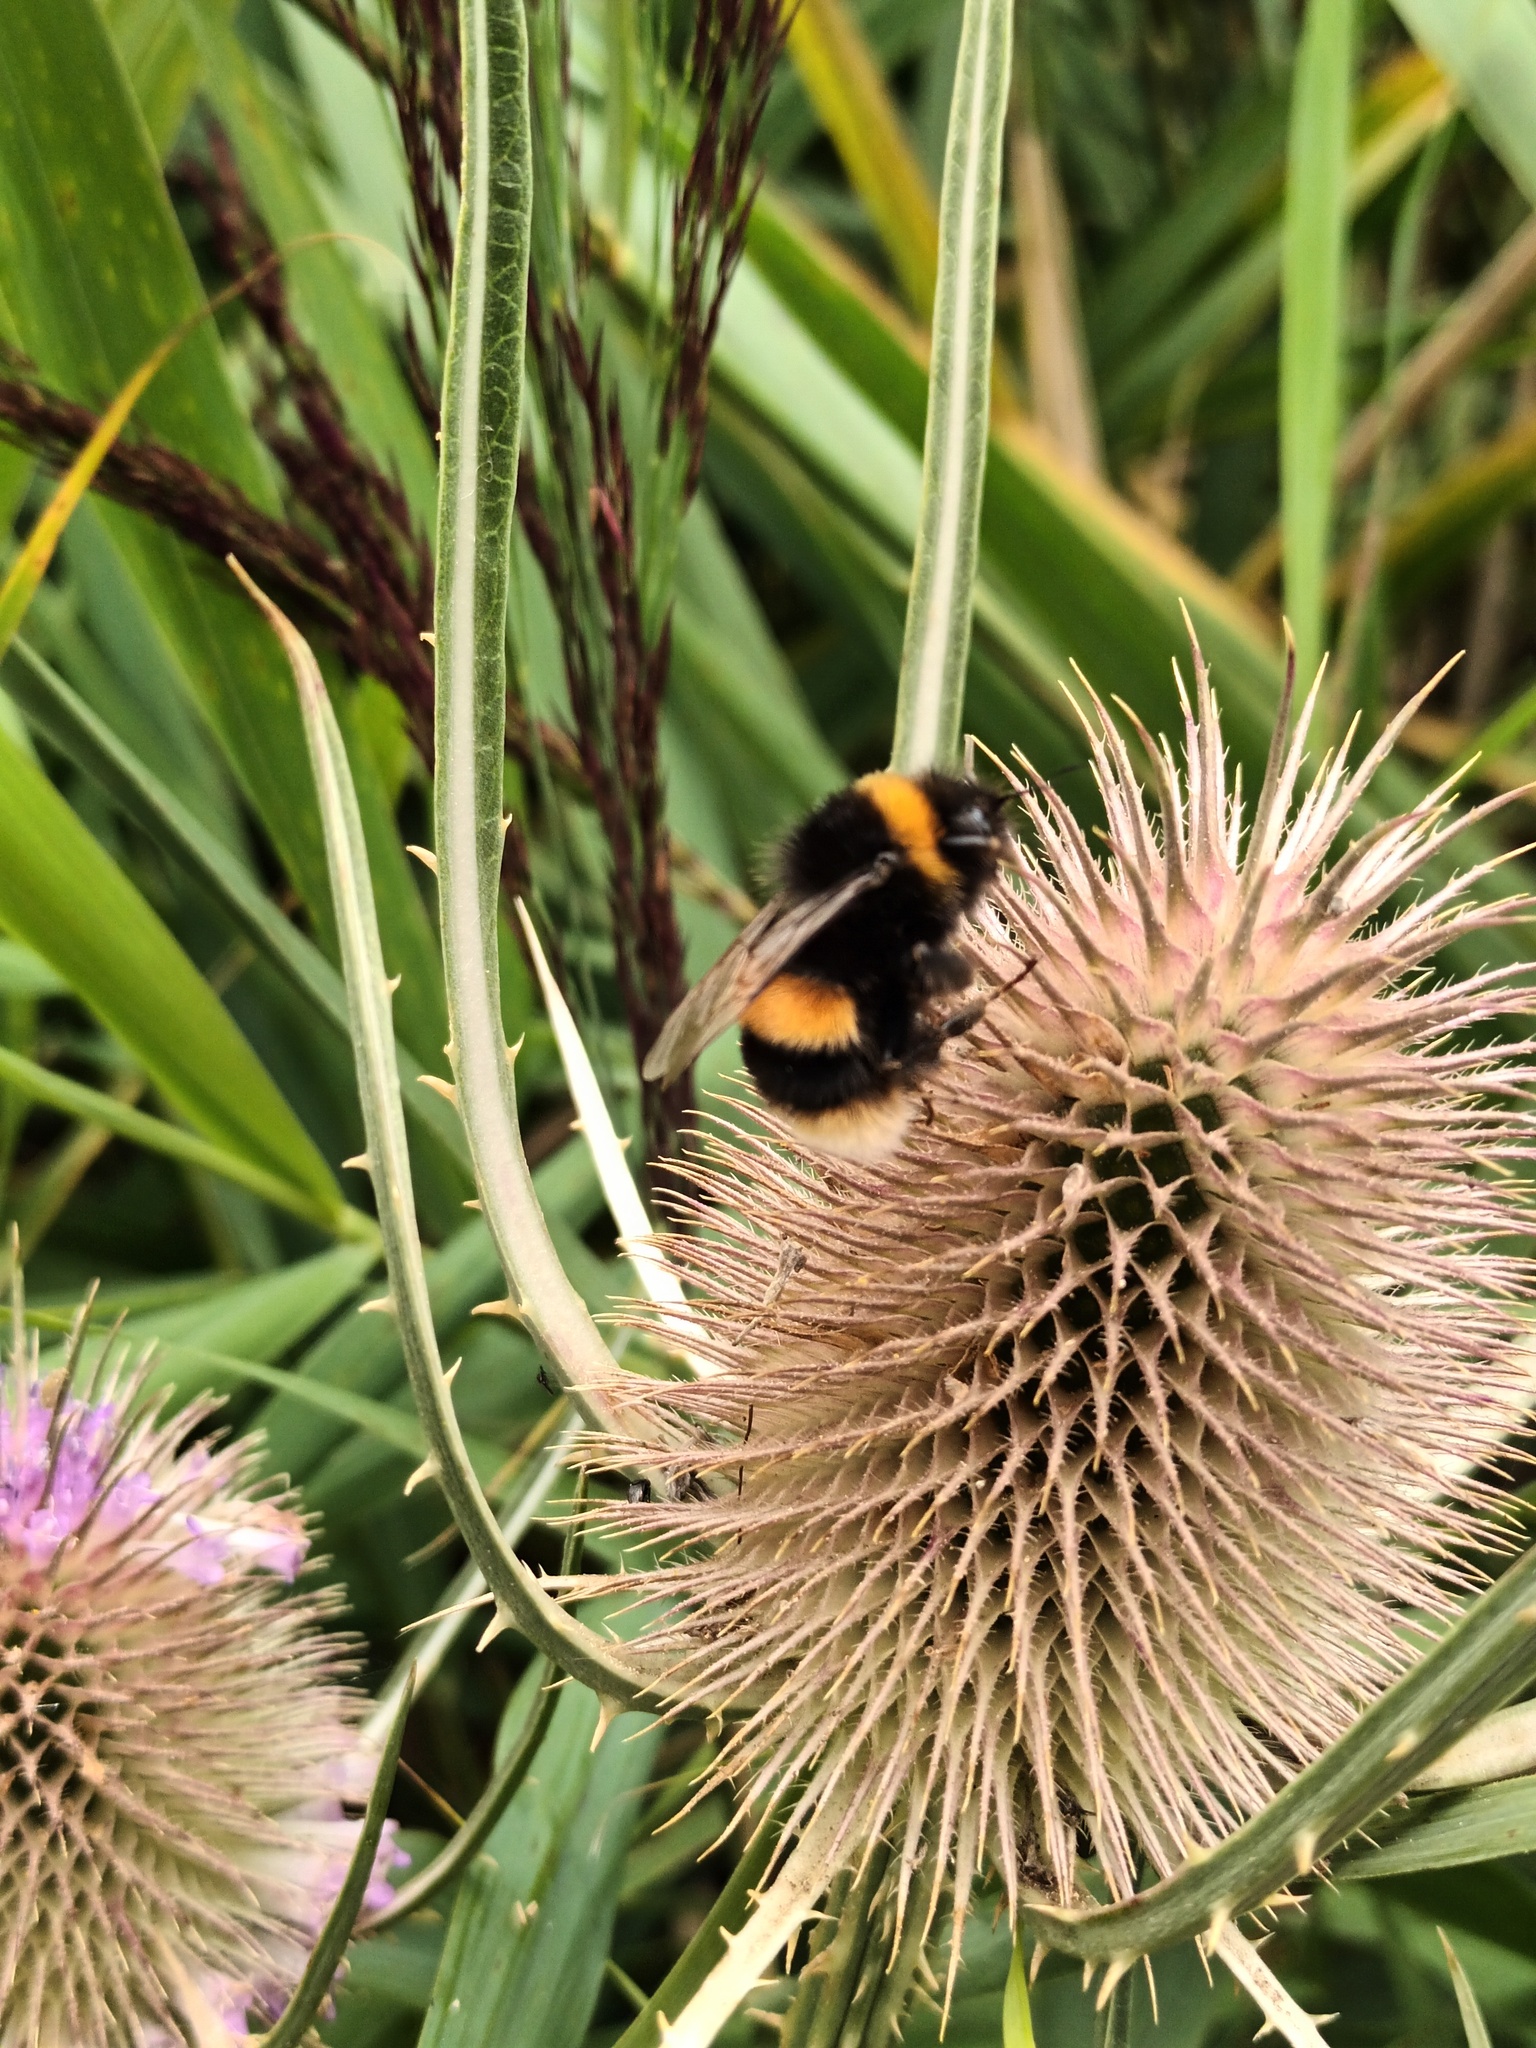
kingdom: Animalia
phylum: Arthropoda
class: Insecta
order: Hymenoptera
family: Apidae
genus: Bombus
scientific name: Bombus terrestris
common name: Buff-tailed bumblebee
